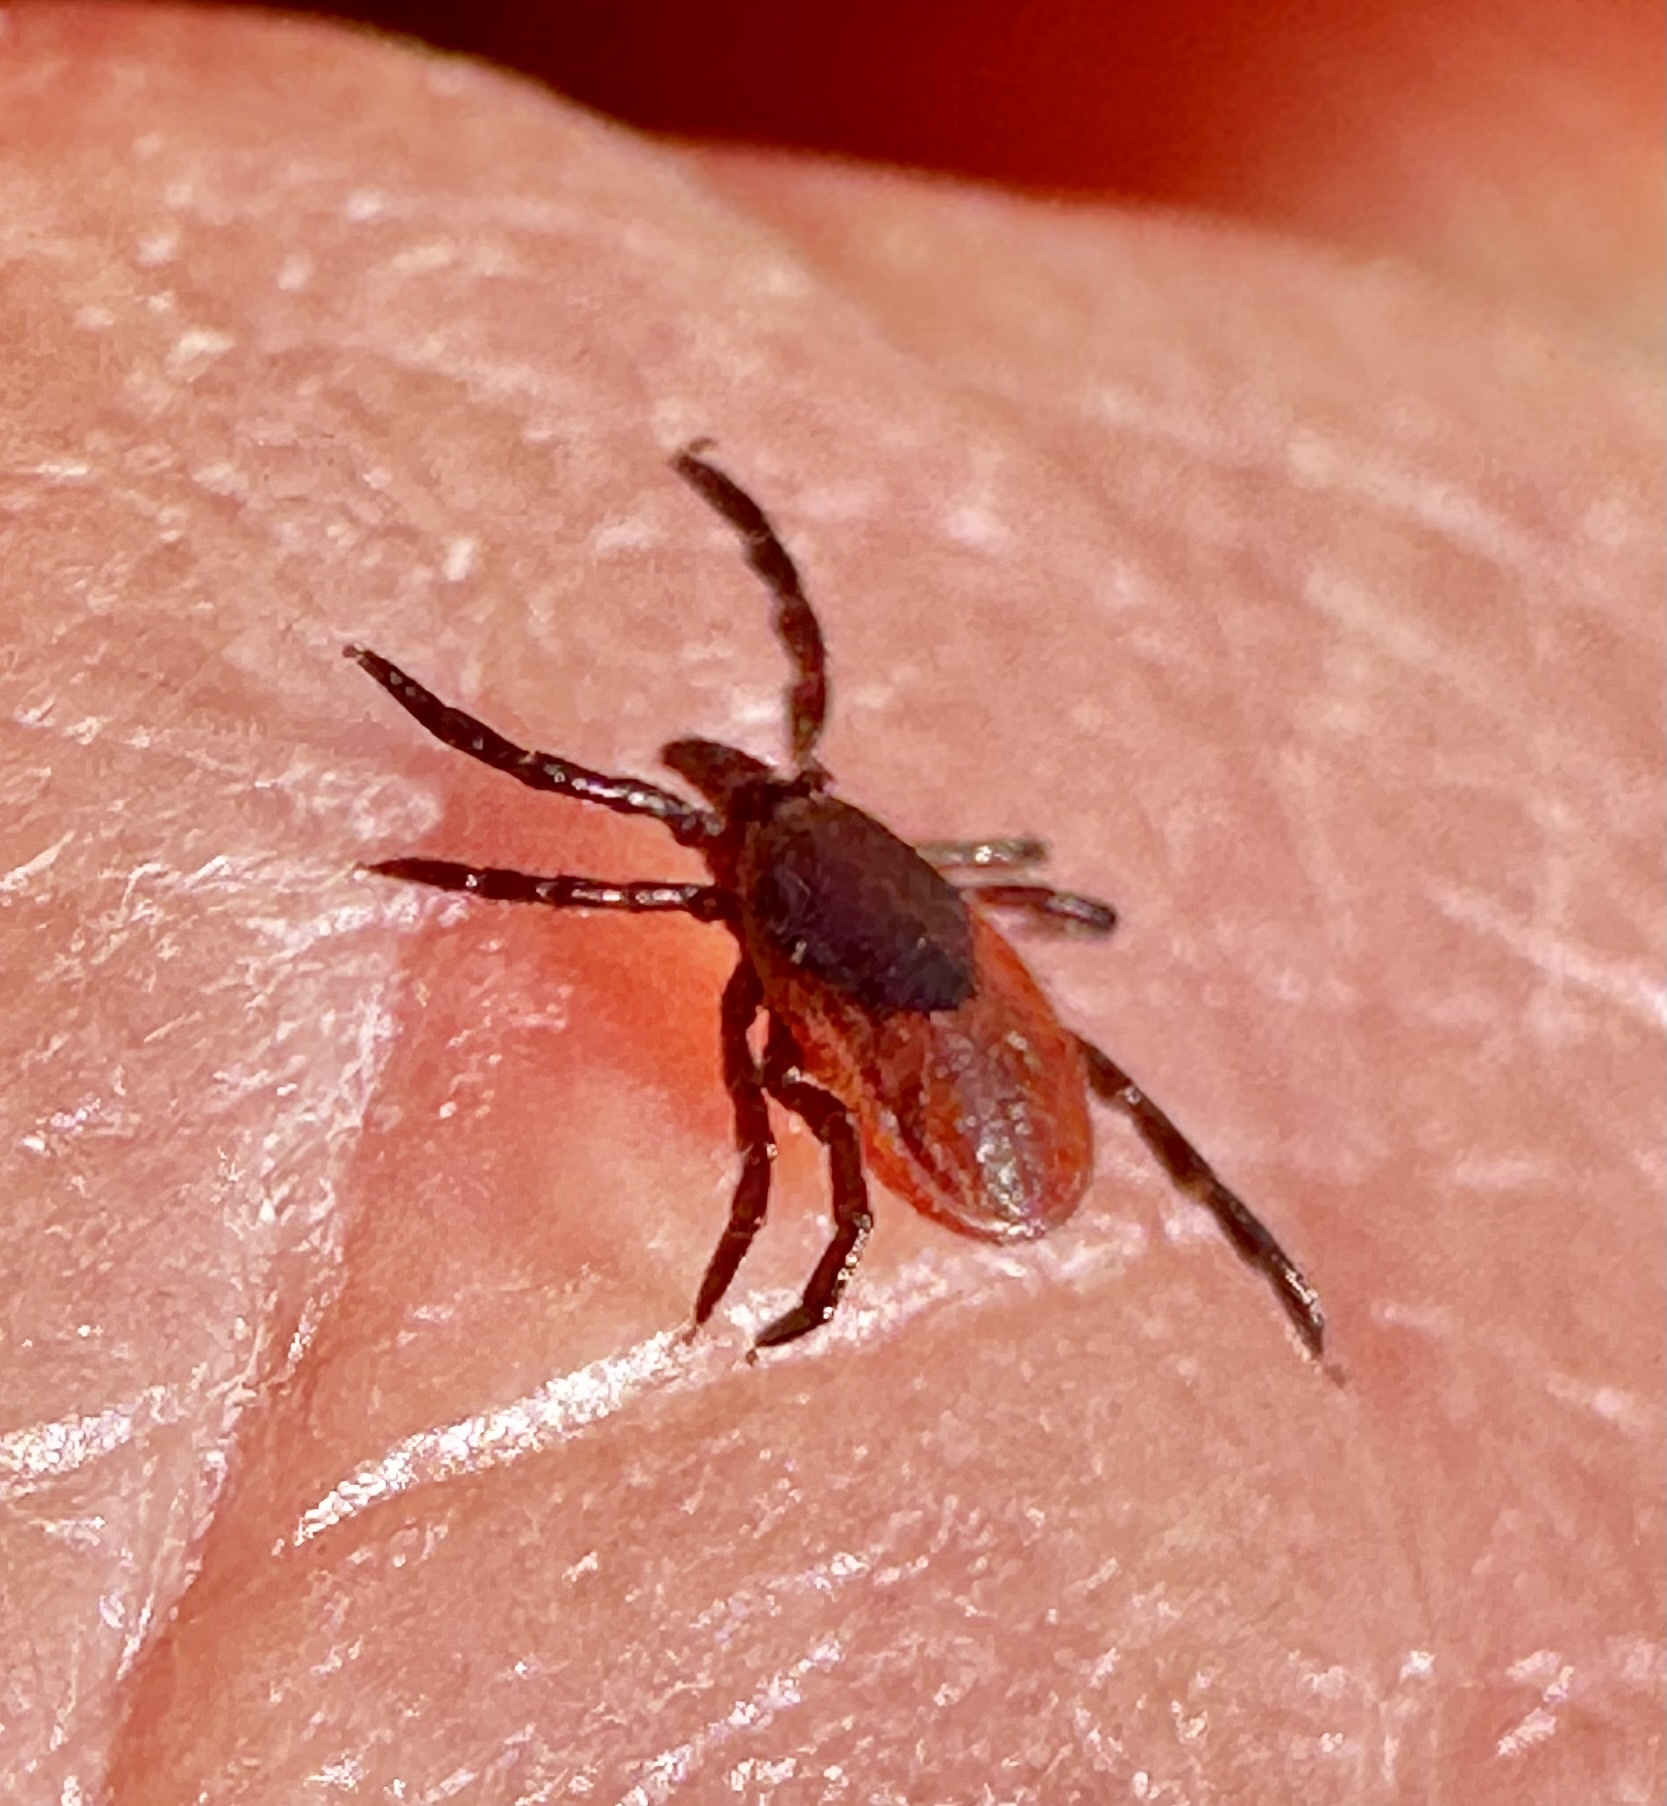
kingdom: Animalia
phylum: Arthropoda
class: Arachnida
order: Ixodida
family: Ixodidae
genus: Ixodes
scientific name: Ixodes pacificus
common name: California black-legged tick
